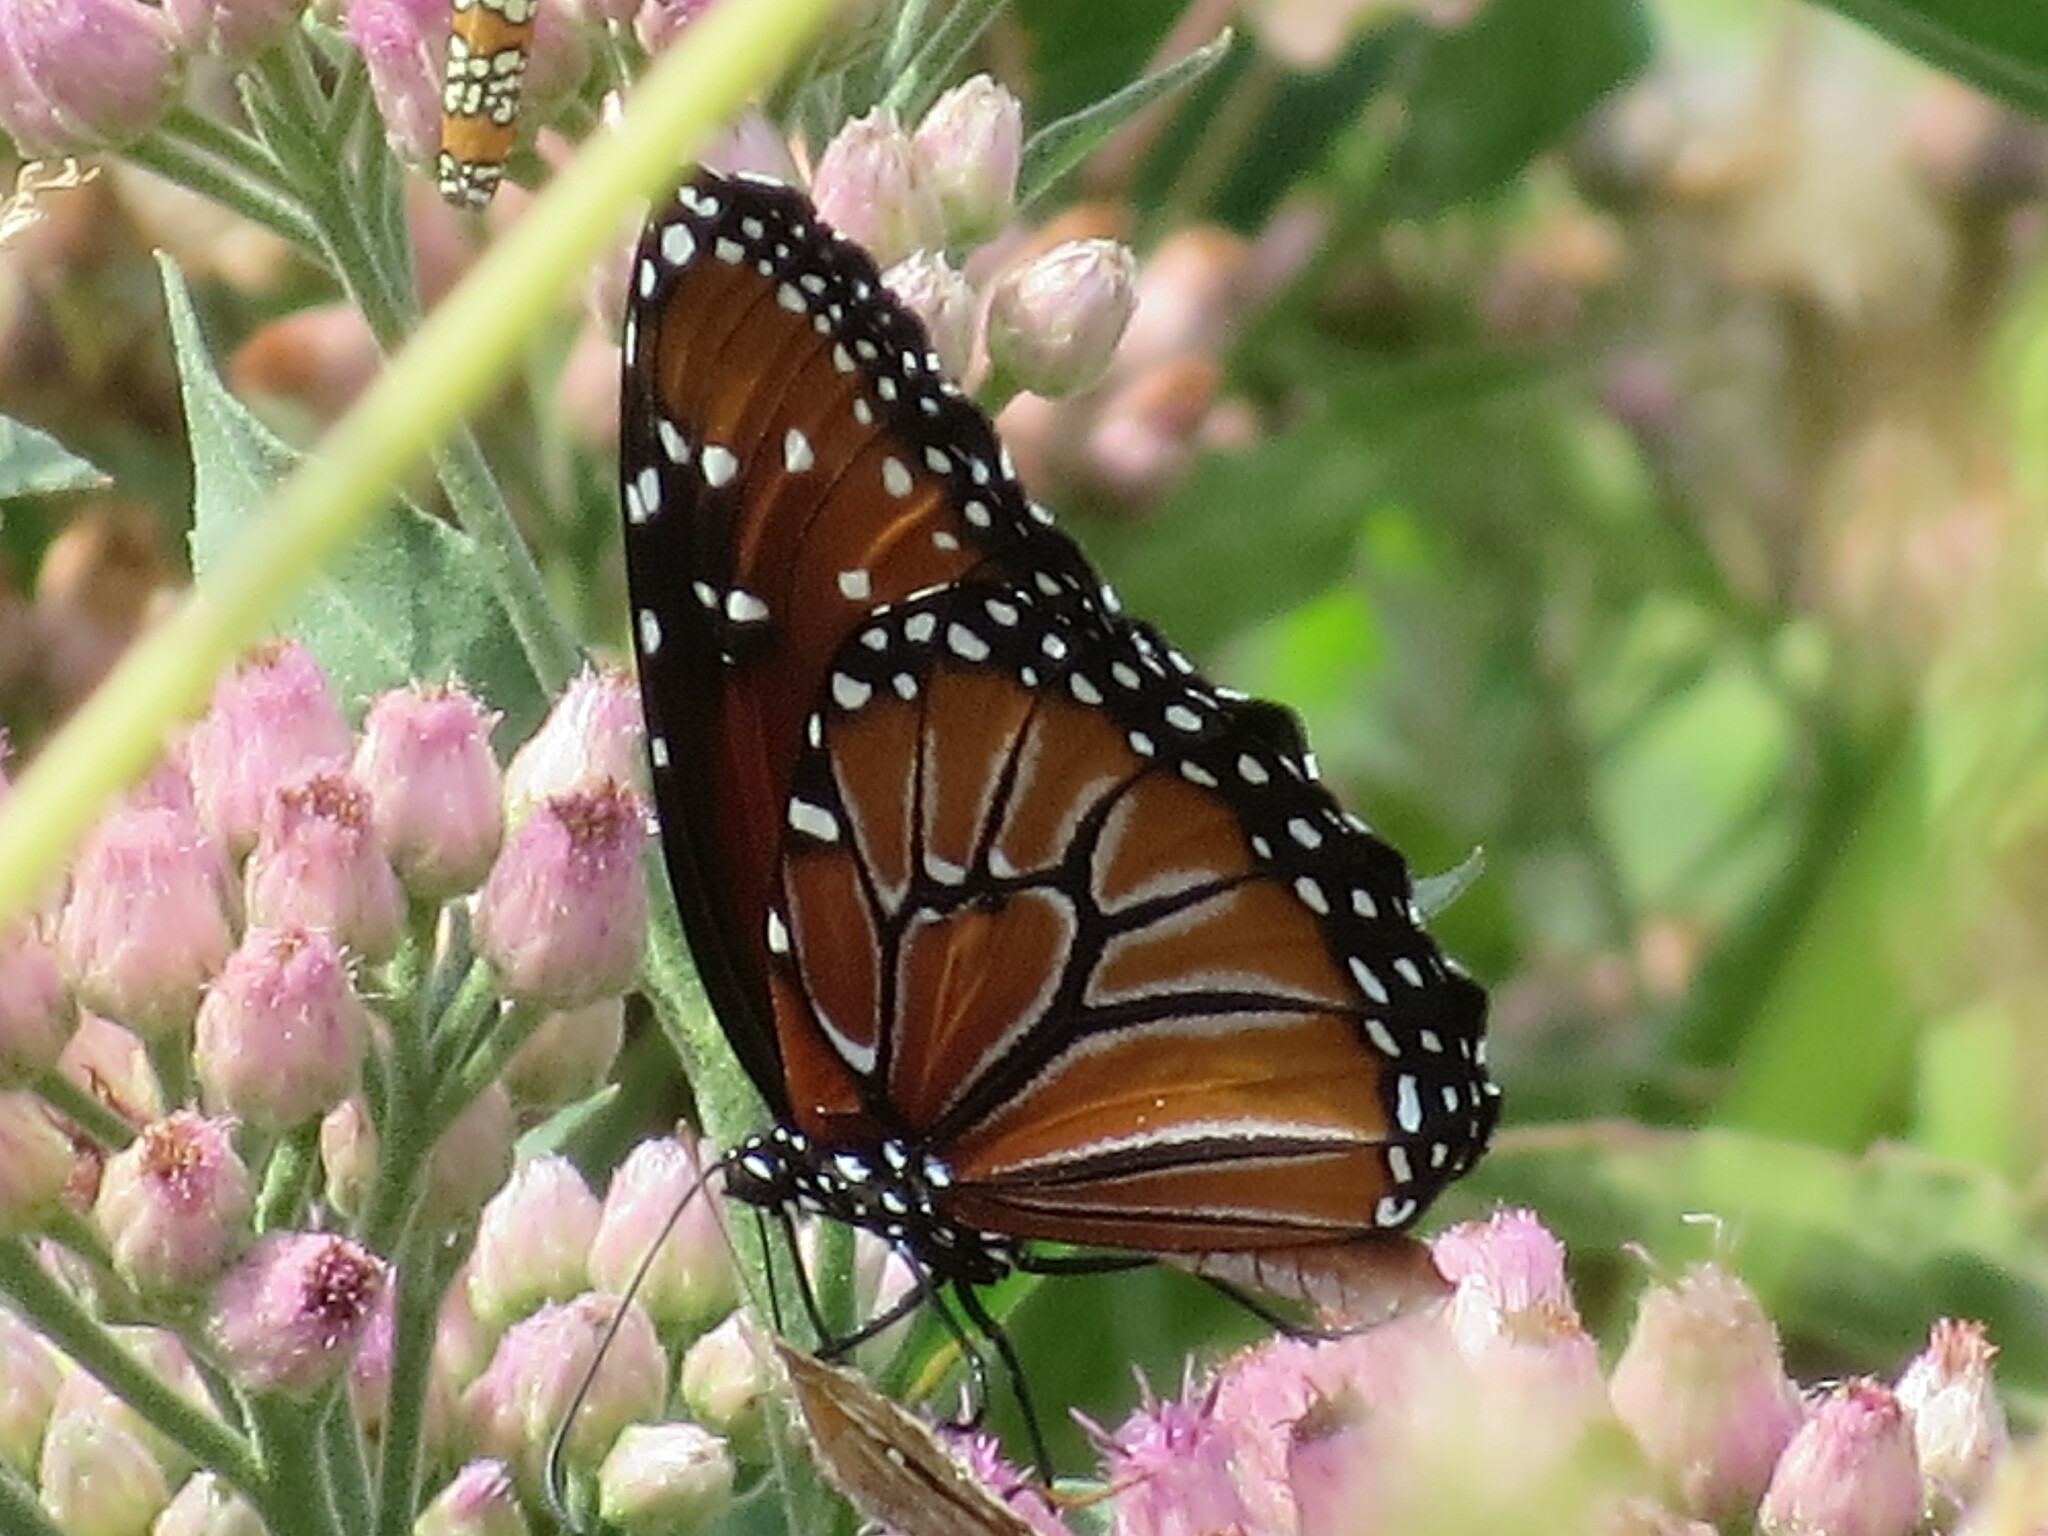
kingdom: Animalia
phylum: Arthropoda
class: Insecta
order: Lepidoptera
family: Nymphalidae
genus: Danaus
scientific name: Danaus gilippus
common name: Queen
